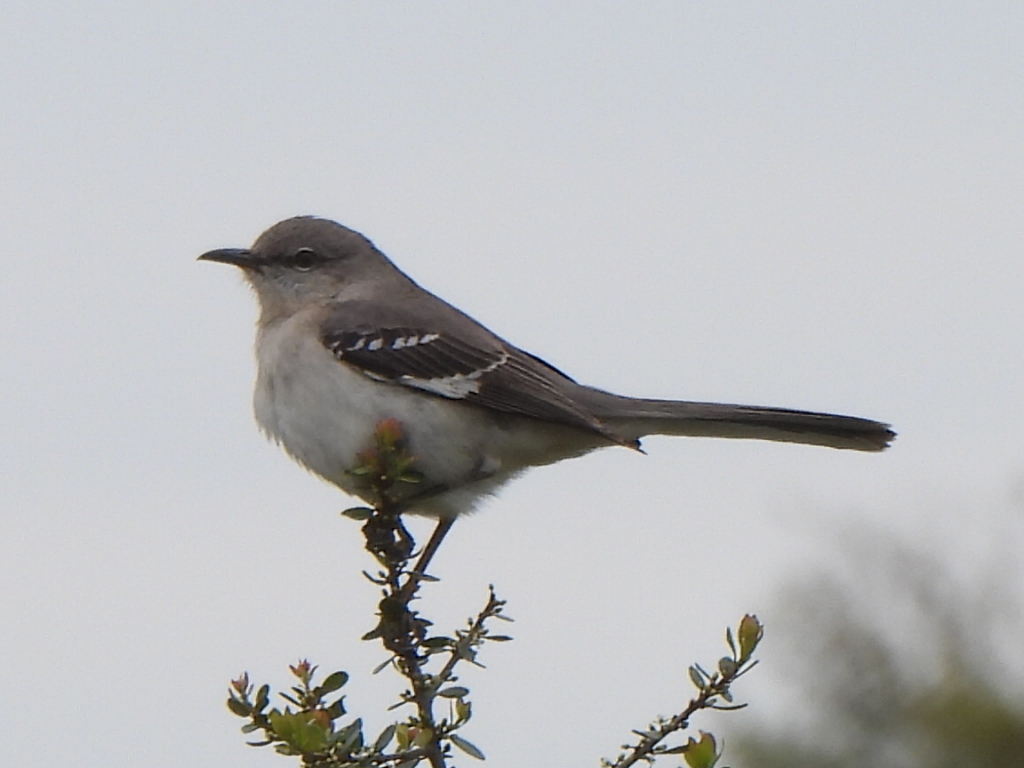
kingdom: Animalia
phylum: Chordata
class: Aves
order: Passeriformes
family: Mimidae
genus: Mimus
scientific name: Mimus polyglottos
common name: Northern mockingbird
